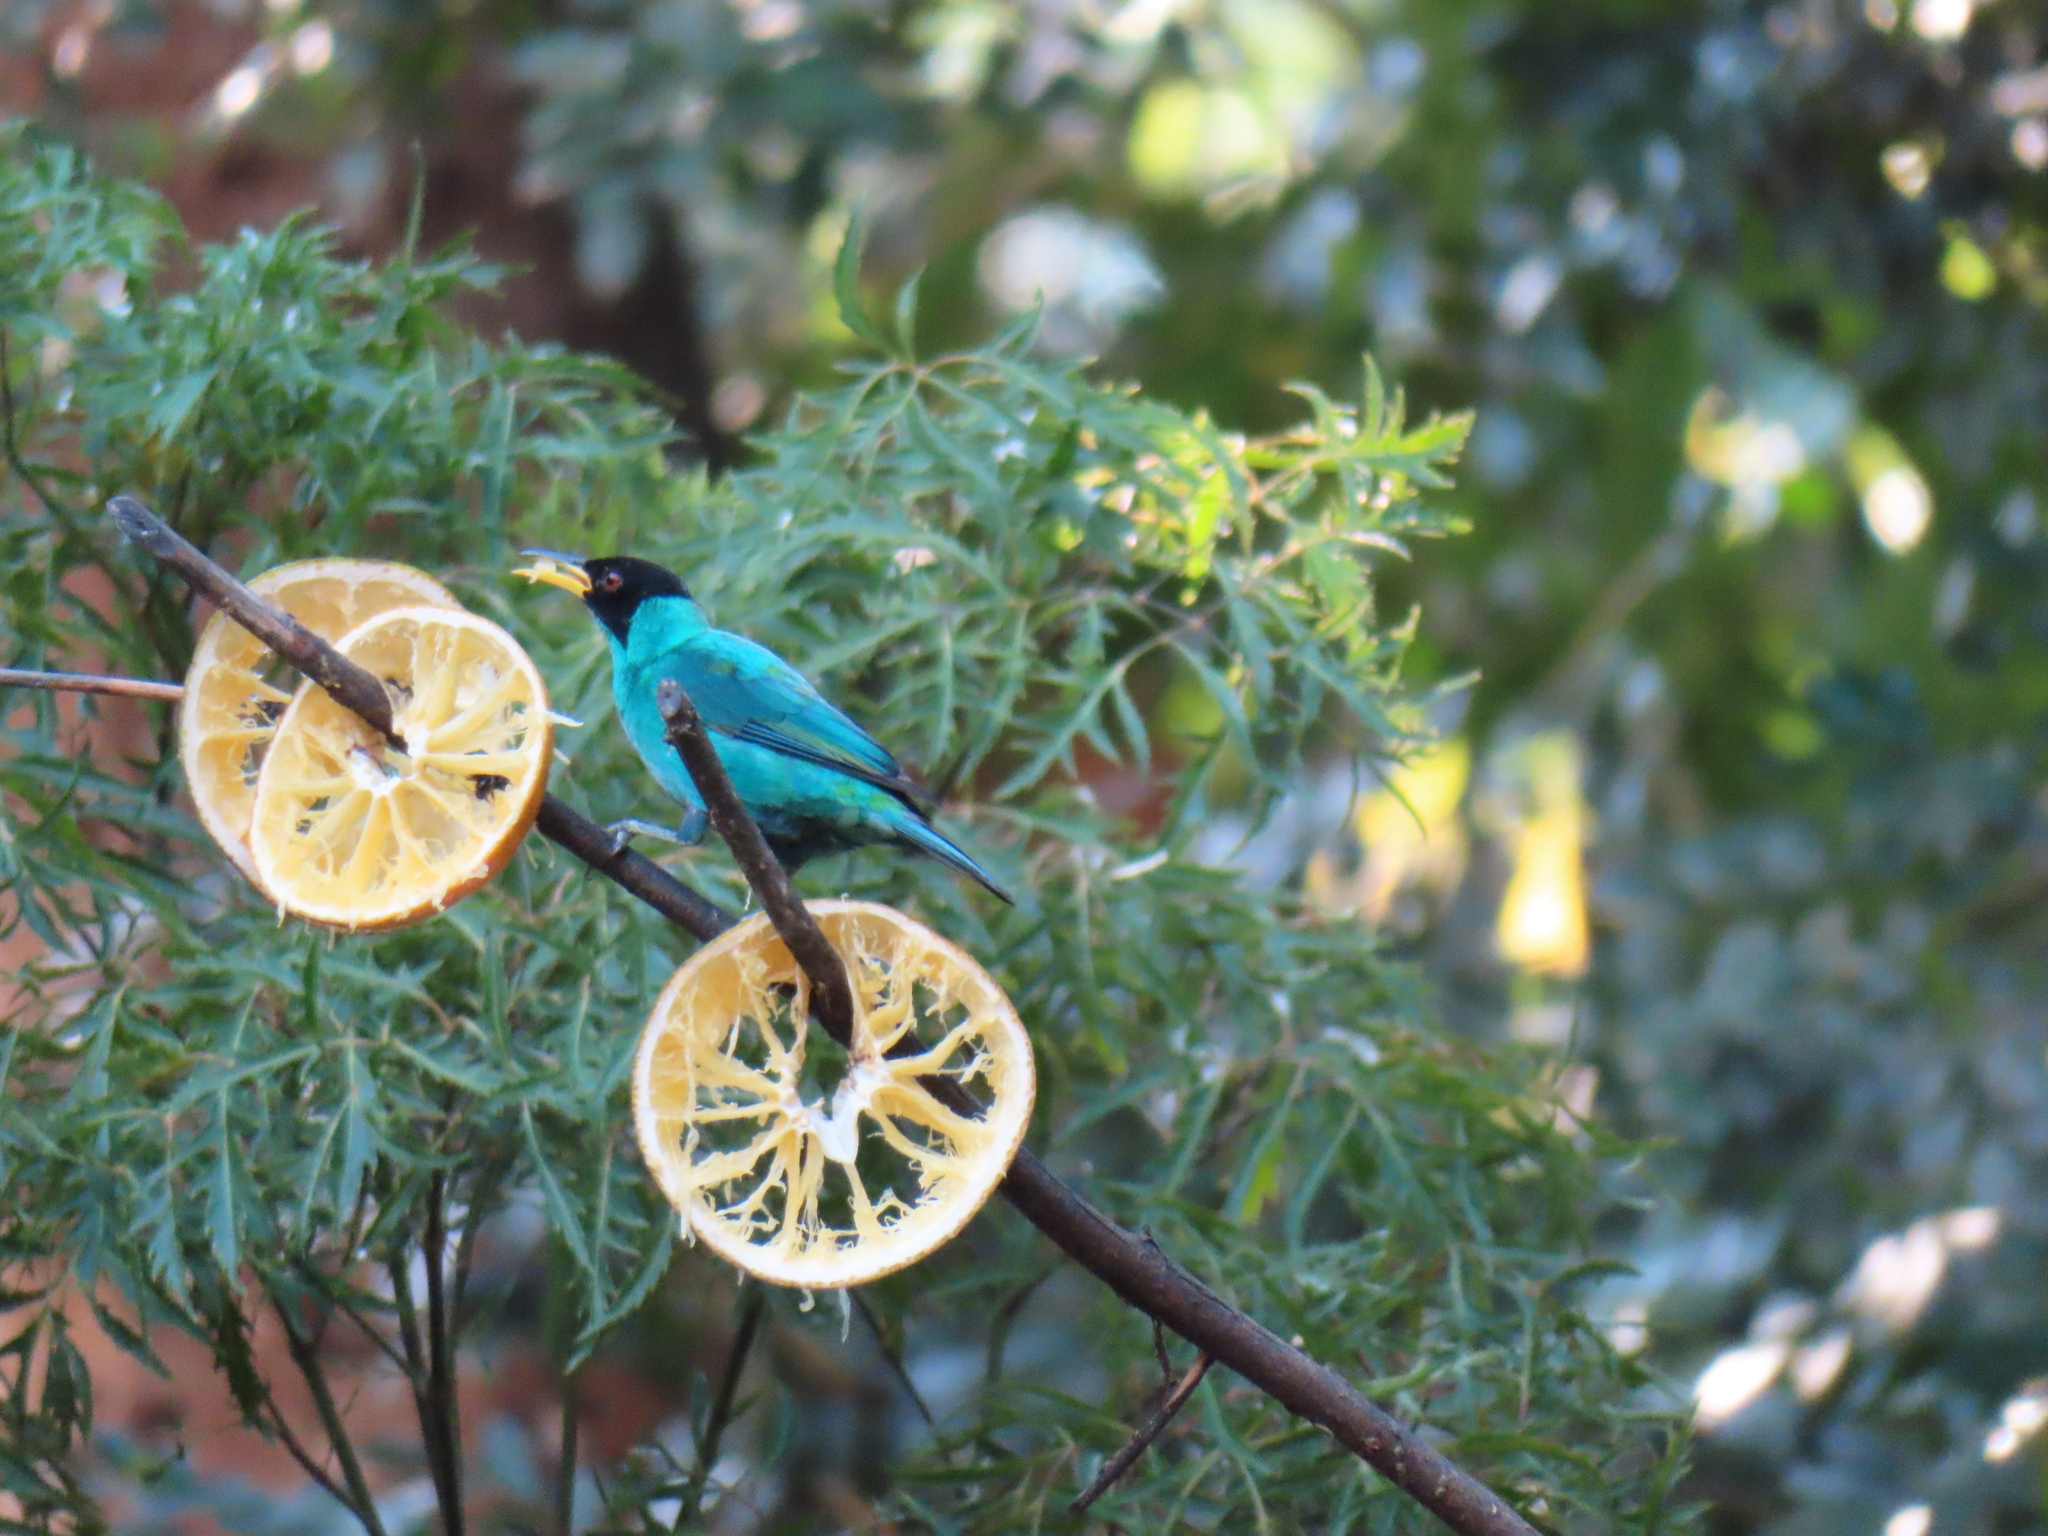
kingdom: Animalia
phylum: Chordata
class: Aves
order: Passeriformes
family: Thraupidae
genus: Chlorophanes
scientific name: Chlorophanes spiza
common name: Green honeycreeper
